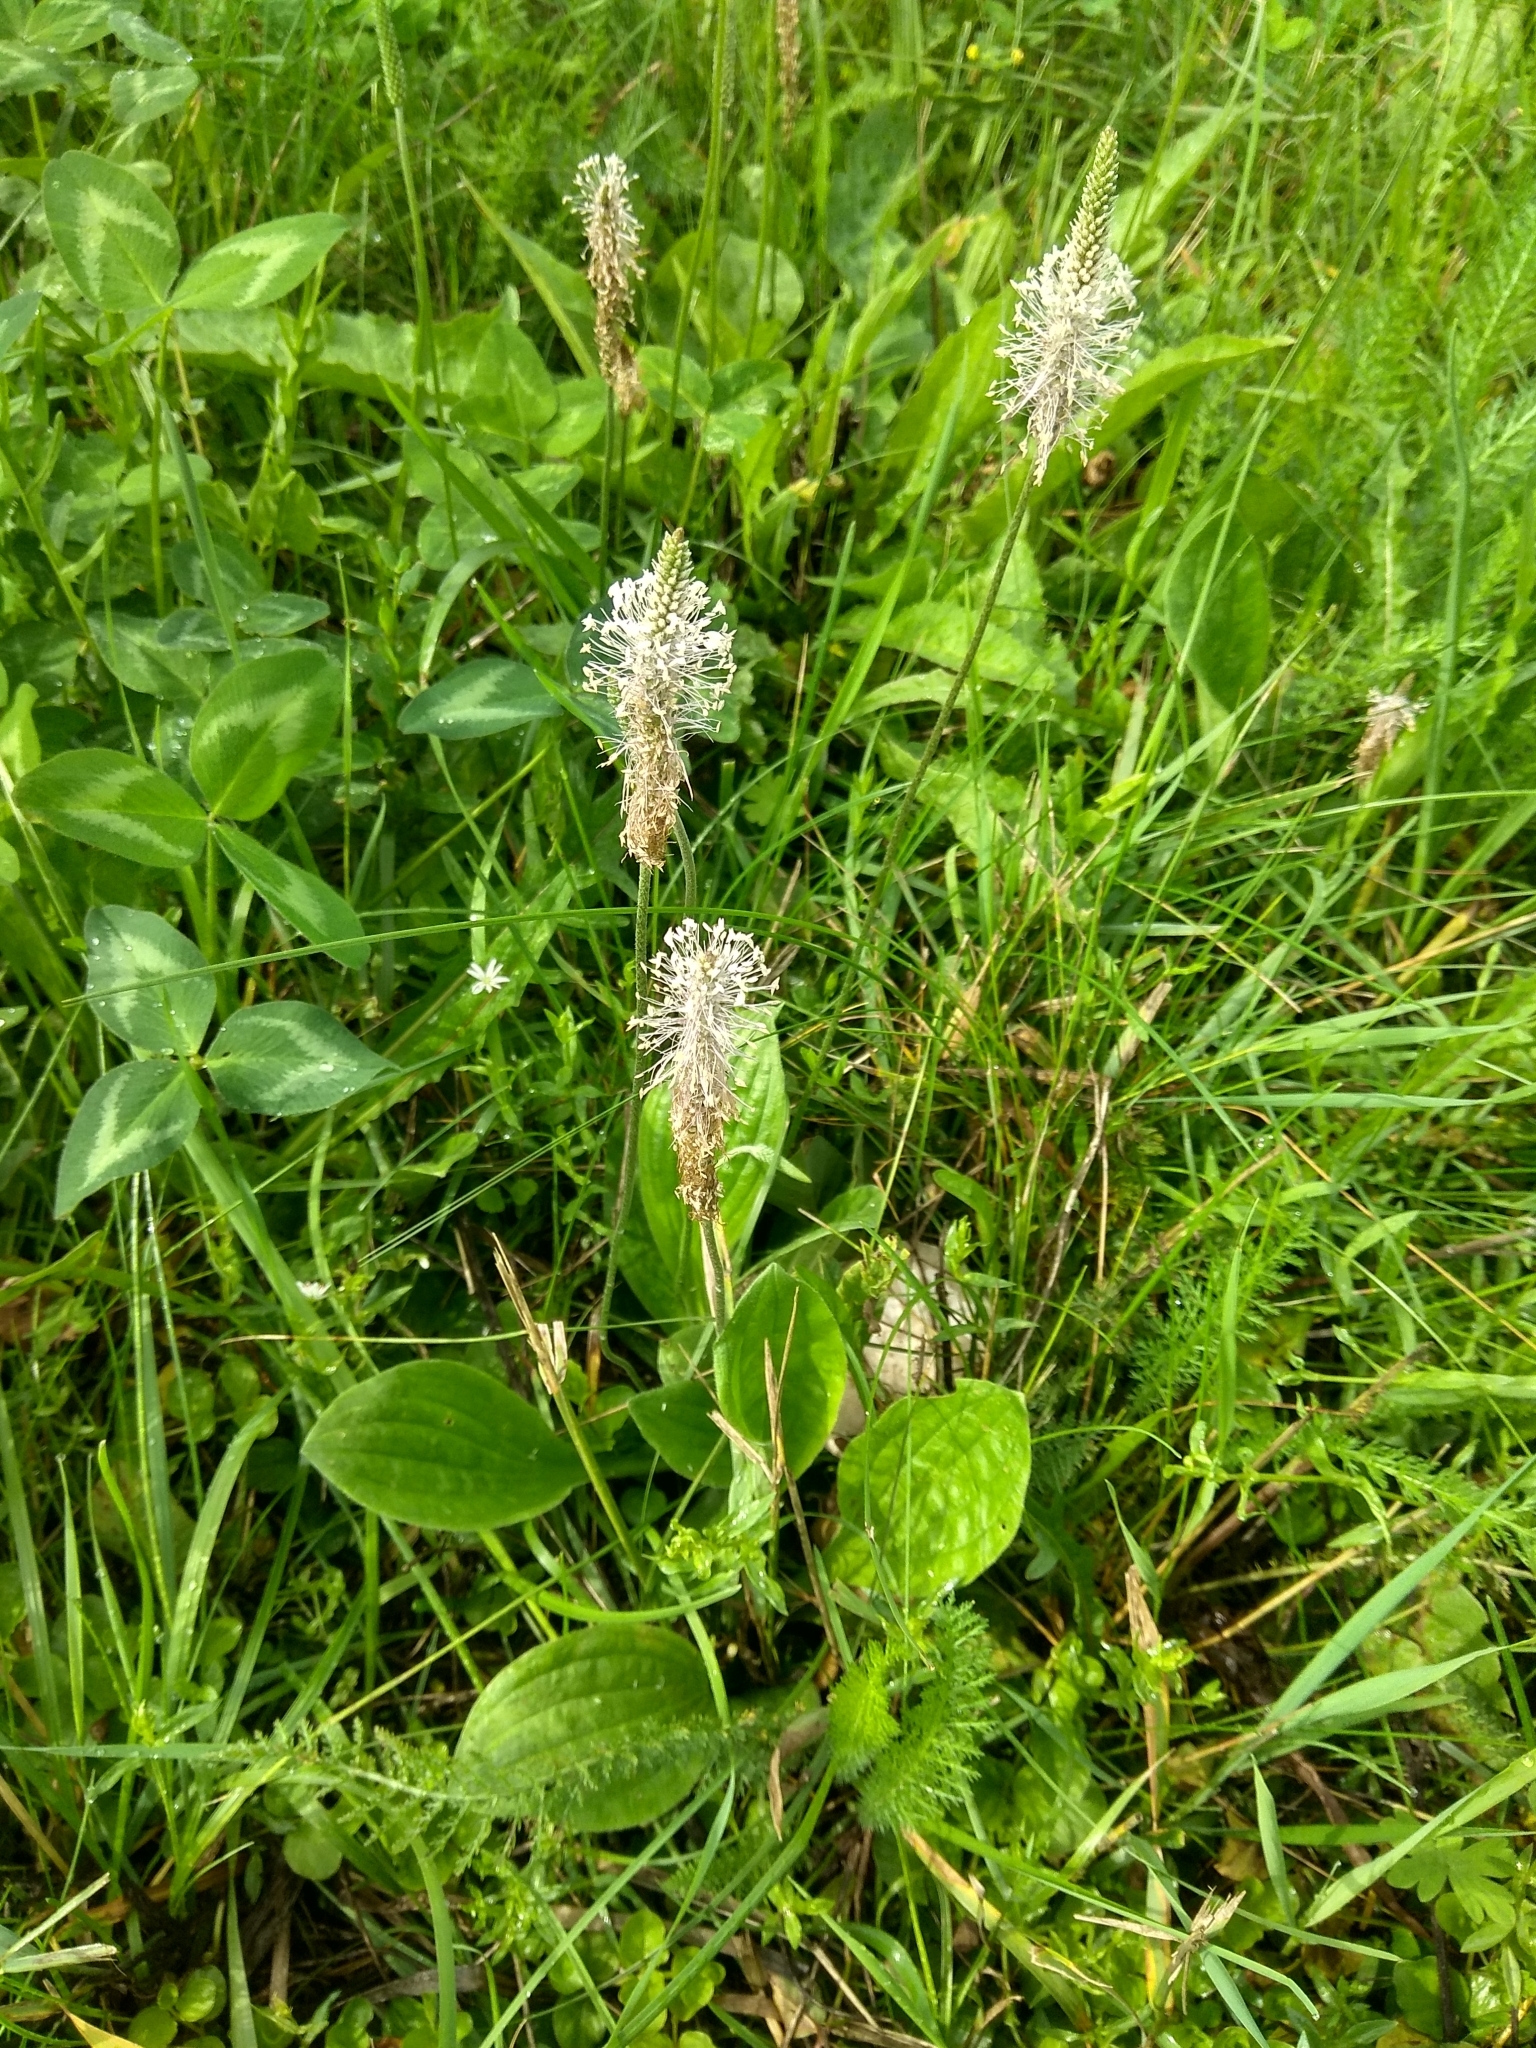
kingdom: Plantae
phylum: Tracheophyta
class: Magnoliopsida
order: Lamiales
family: Plantaginaceae
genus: Plantago
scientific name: Plantago media
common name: Hoary plantain
